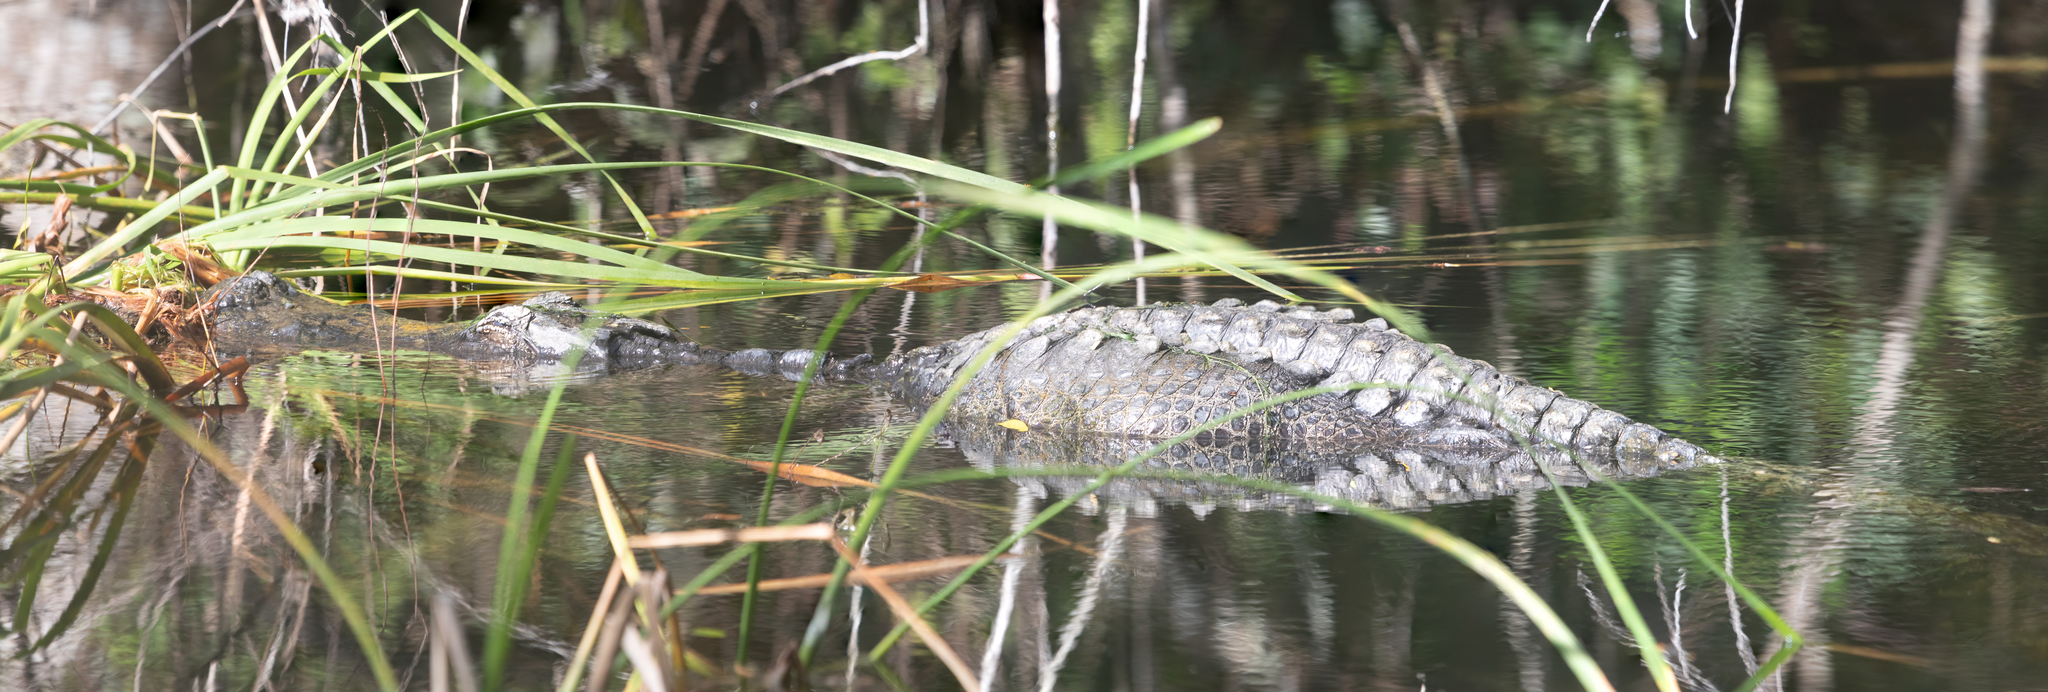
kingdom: Animalia
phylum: Chordata
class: Crocodylia
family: Alligatoridae
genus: Alligator
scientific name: Alligator mississippiensis
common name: American alligator
